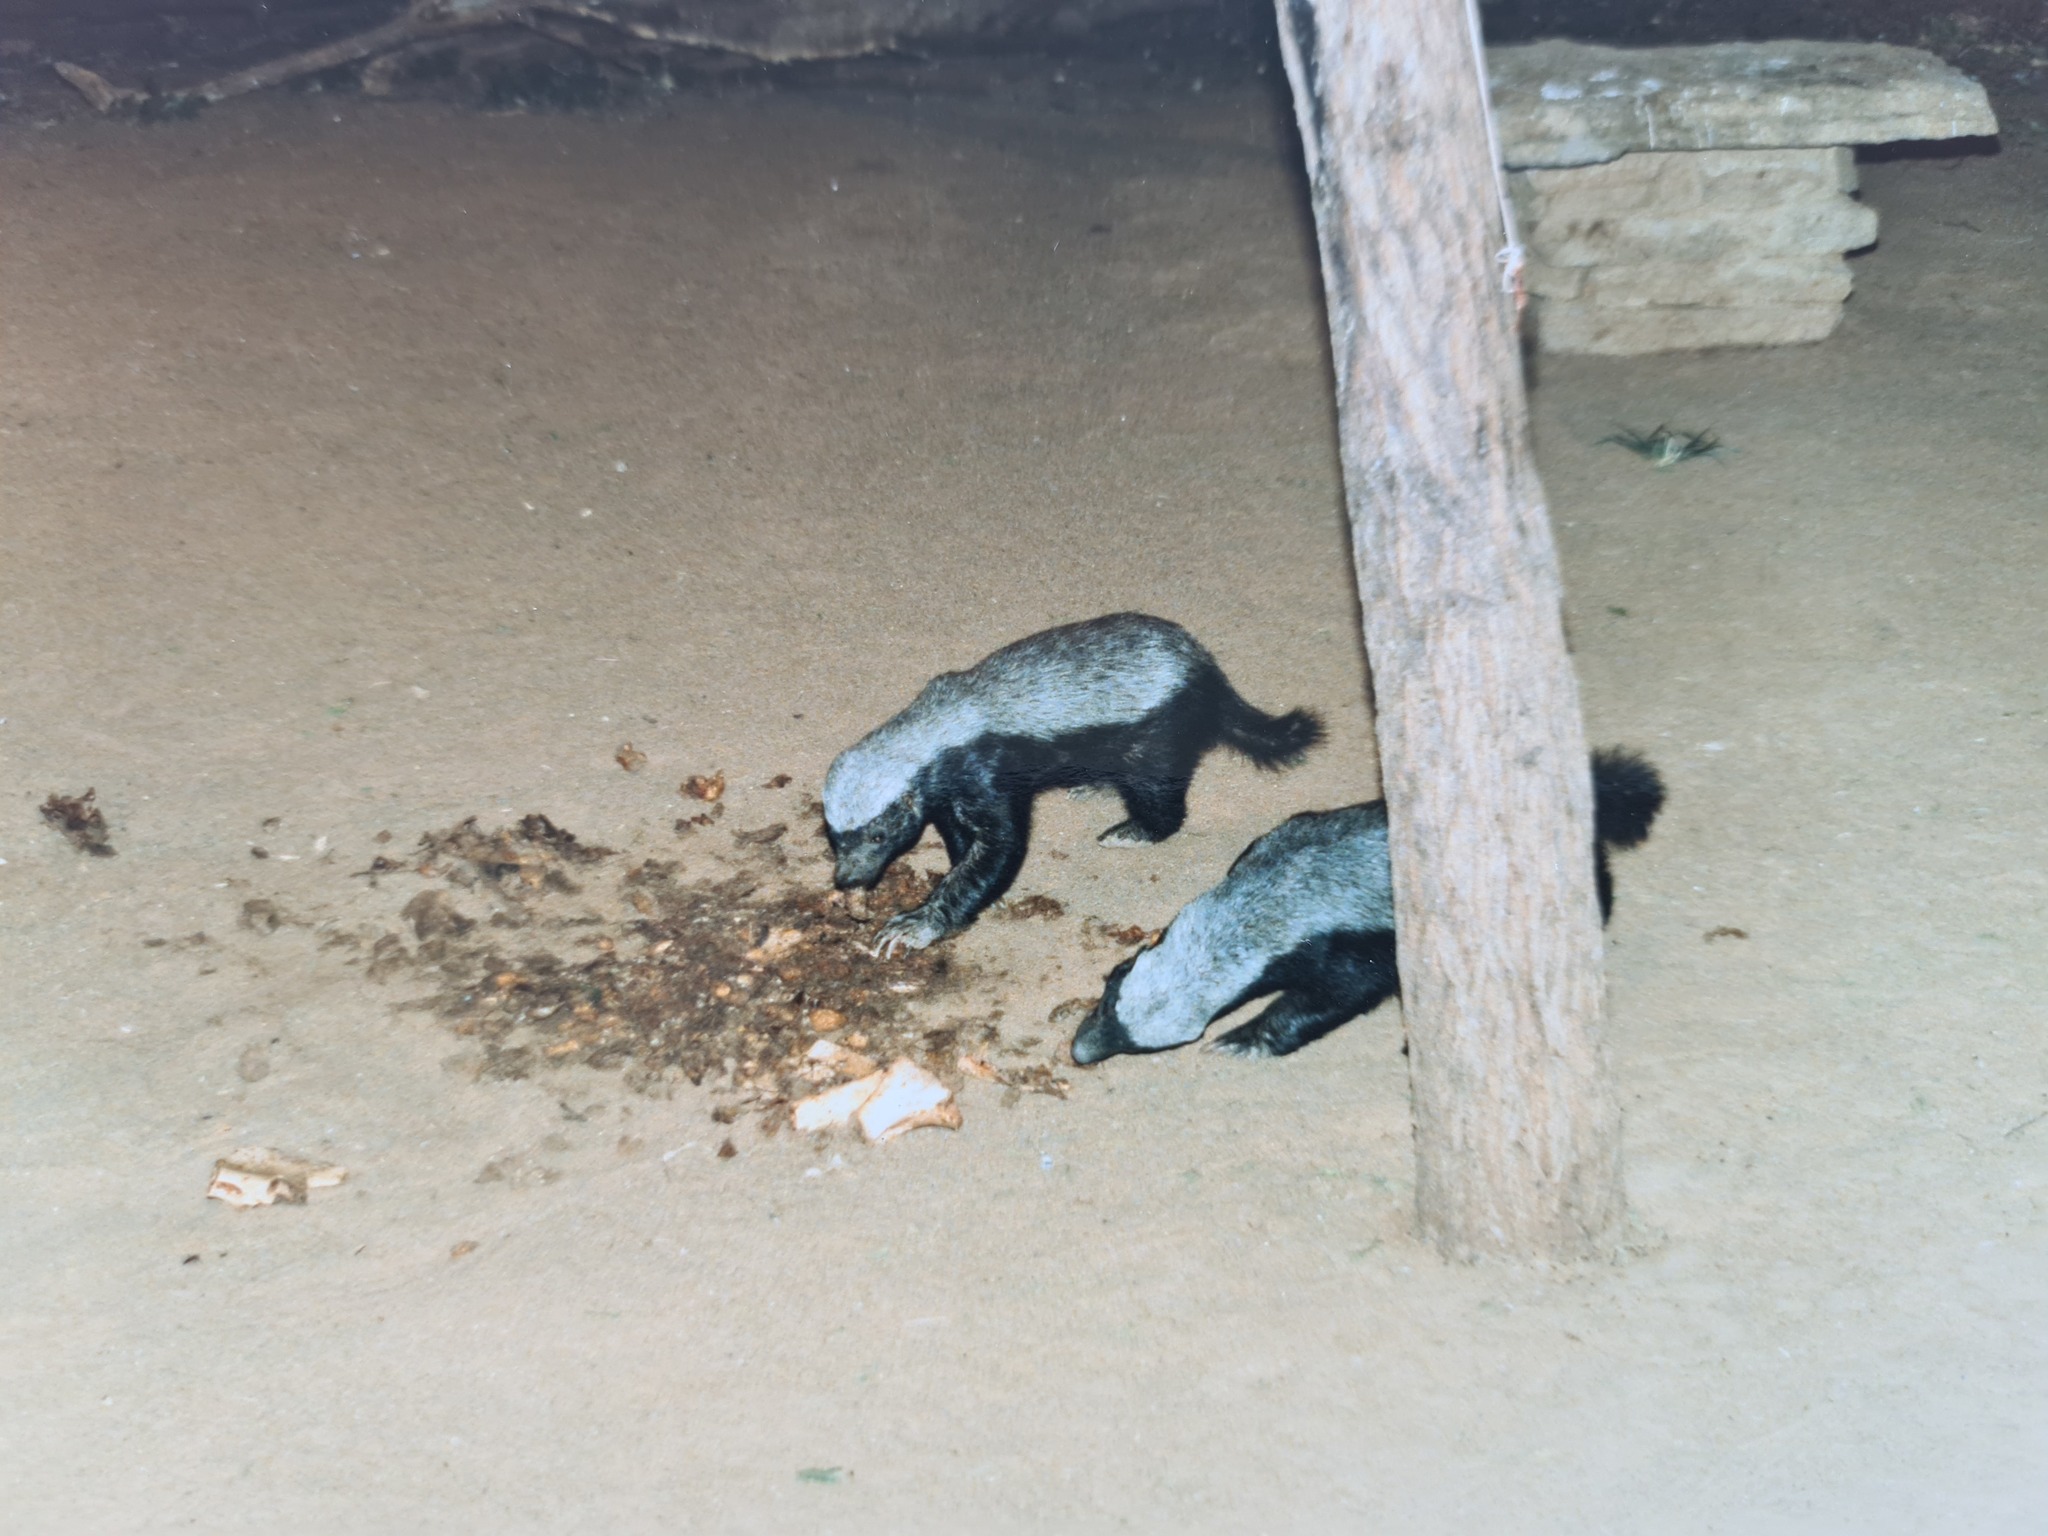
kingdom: Animalia
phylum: Chordata
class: Mammalia
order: Carnivora
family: Mustelidae
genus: Mellivora
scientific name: Mellivora capensis
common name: Honey badger
